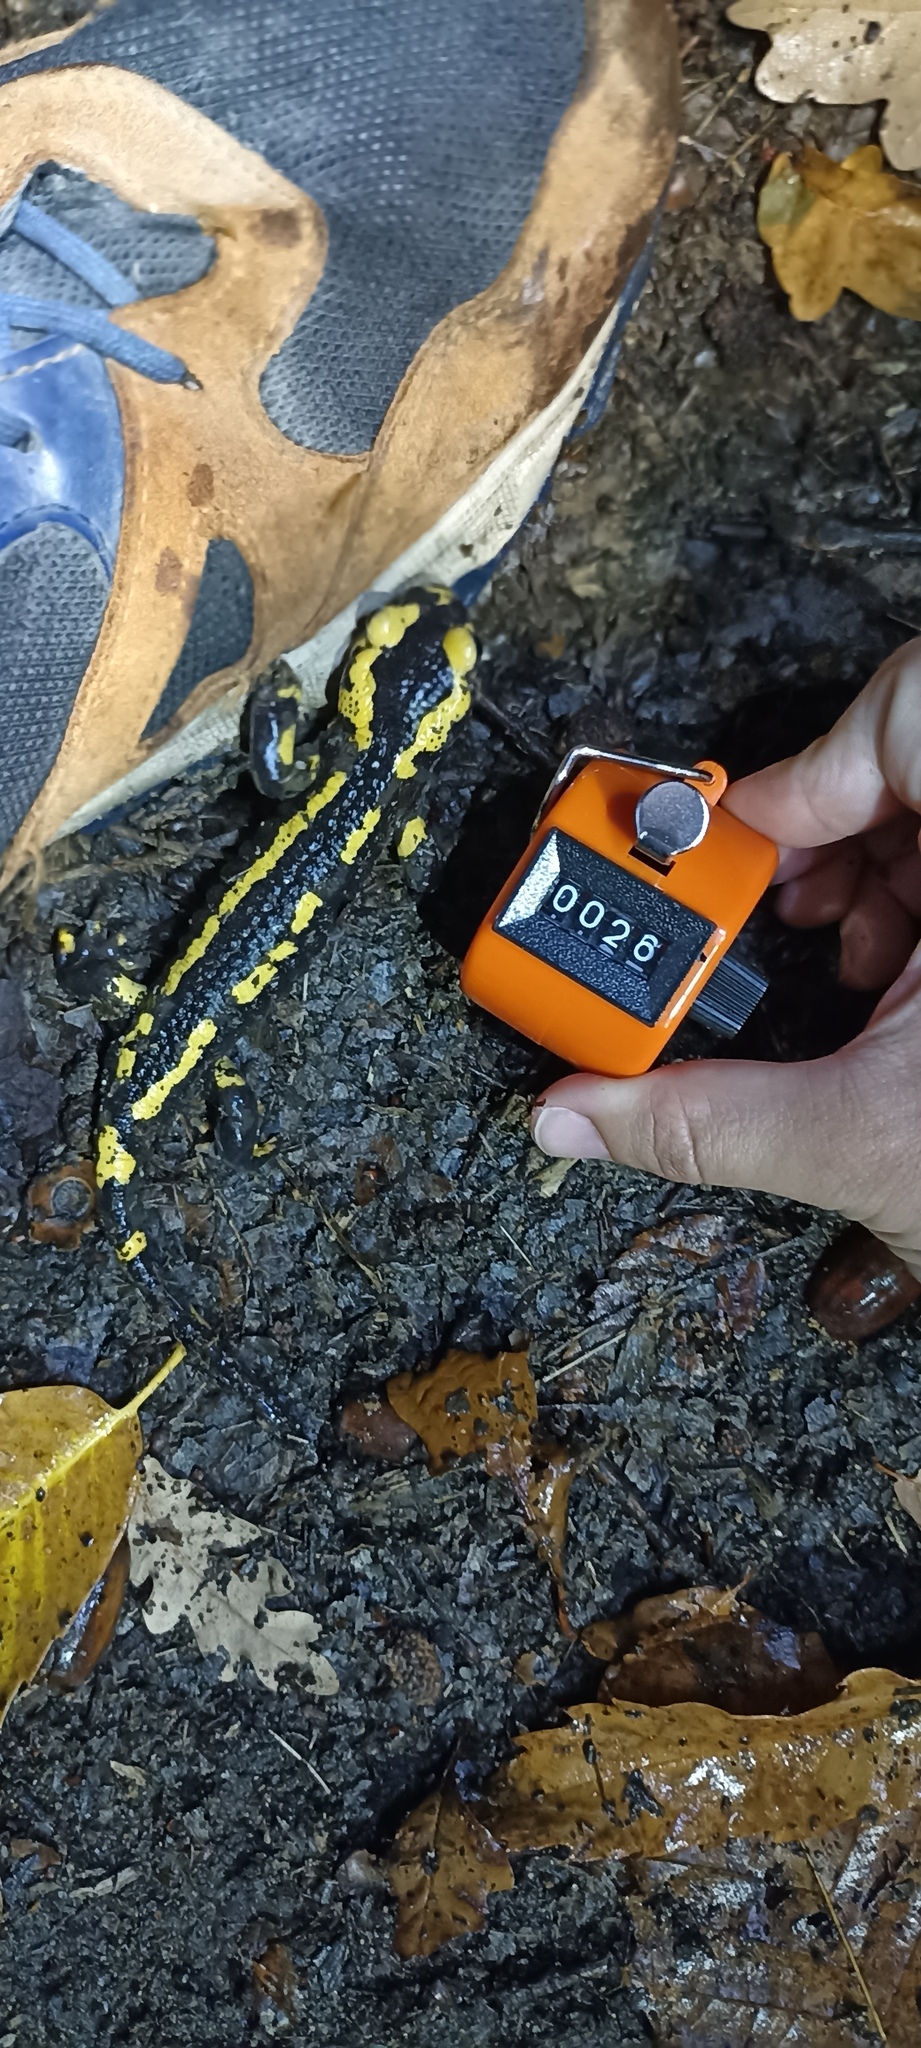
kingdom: Animalia
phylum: Chordata
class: Amphibia
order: Caudata
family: Salamandridae
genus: Salamandra
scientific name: Salamandra salamandra
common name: Fire salamander
